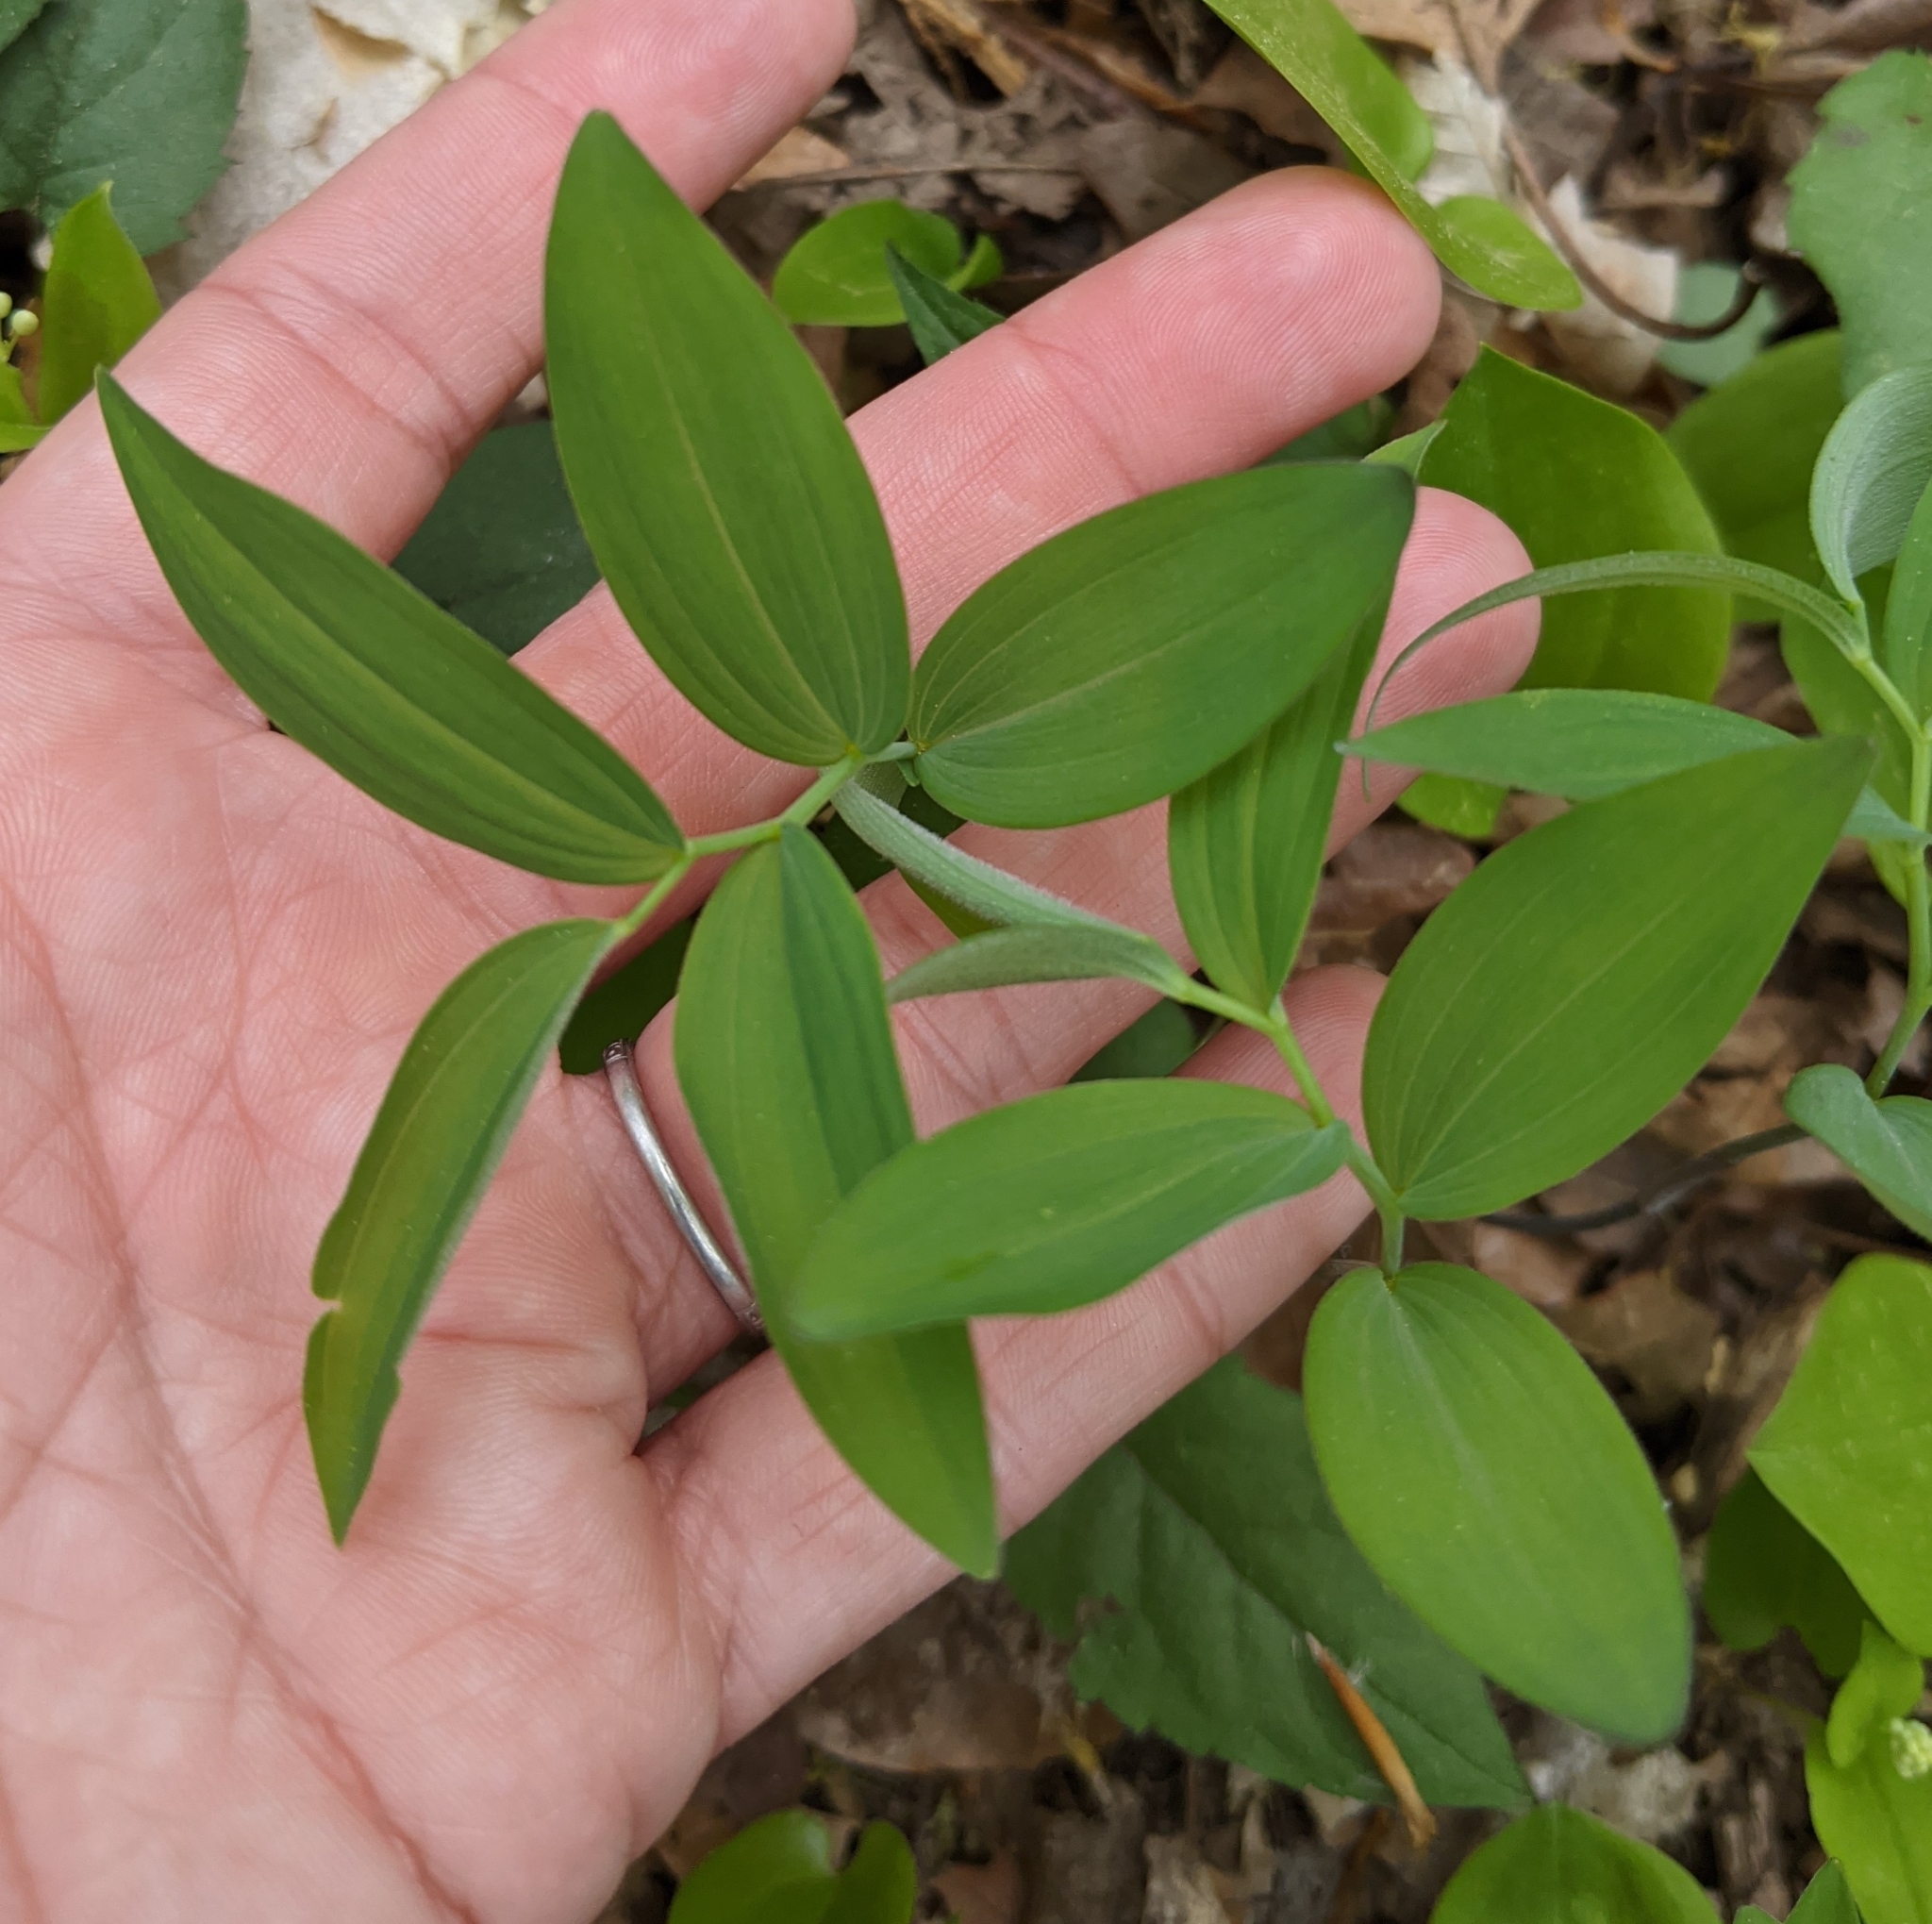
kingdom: Plantae
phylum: Tracheophyta
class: Liliopsida
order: Asparagales
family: Asparagaceae
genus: Polygonatum
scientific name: Polygonatum pubescens
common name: Downy solomon's seal
